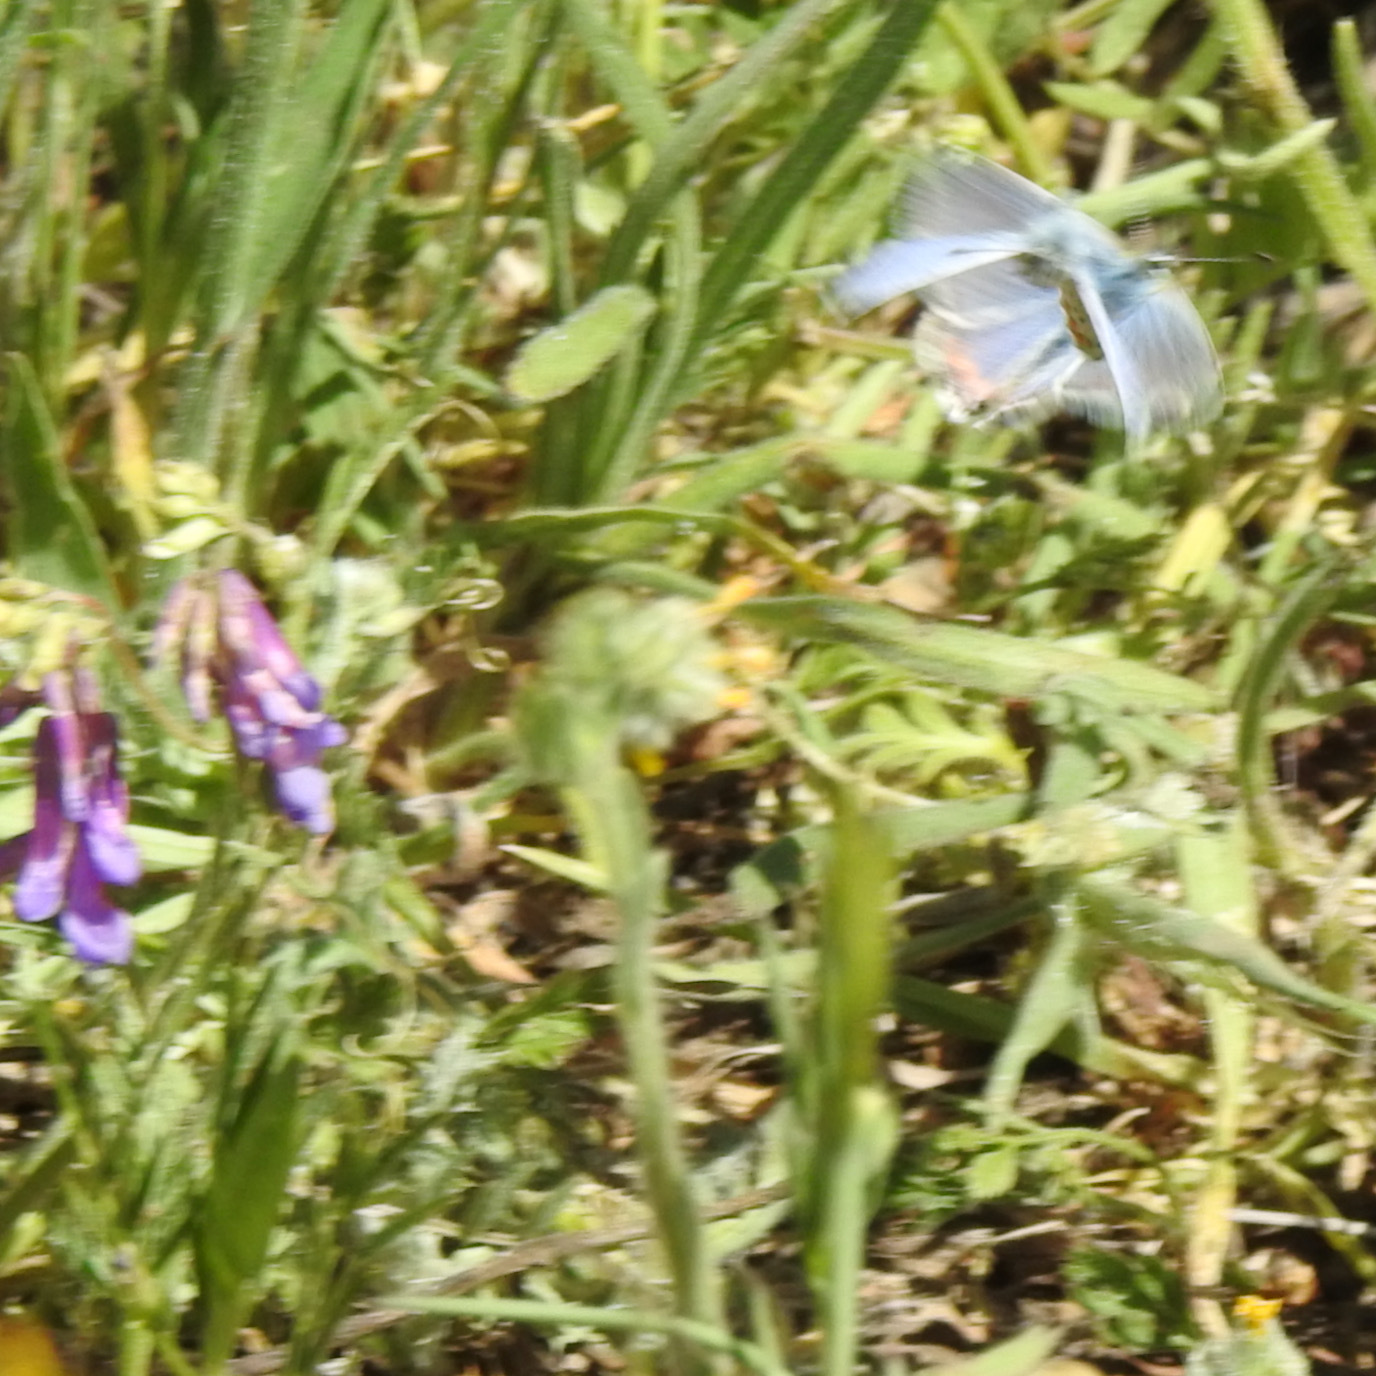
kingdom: Animalia
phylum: Arthropoda
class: Insecta
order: Lepidoptera
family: Lycaenidae
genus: Icaricia
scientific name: Icaricia acmon
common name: Acmon blue
